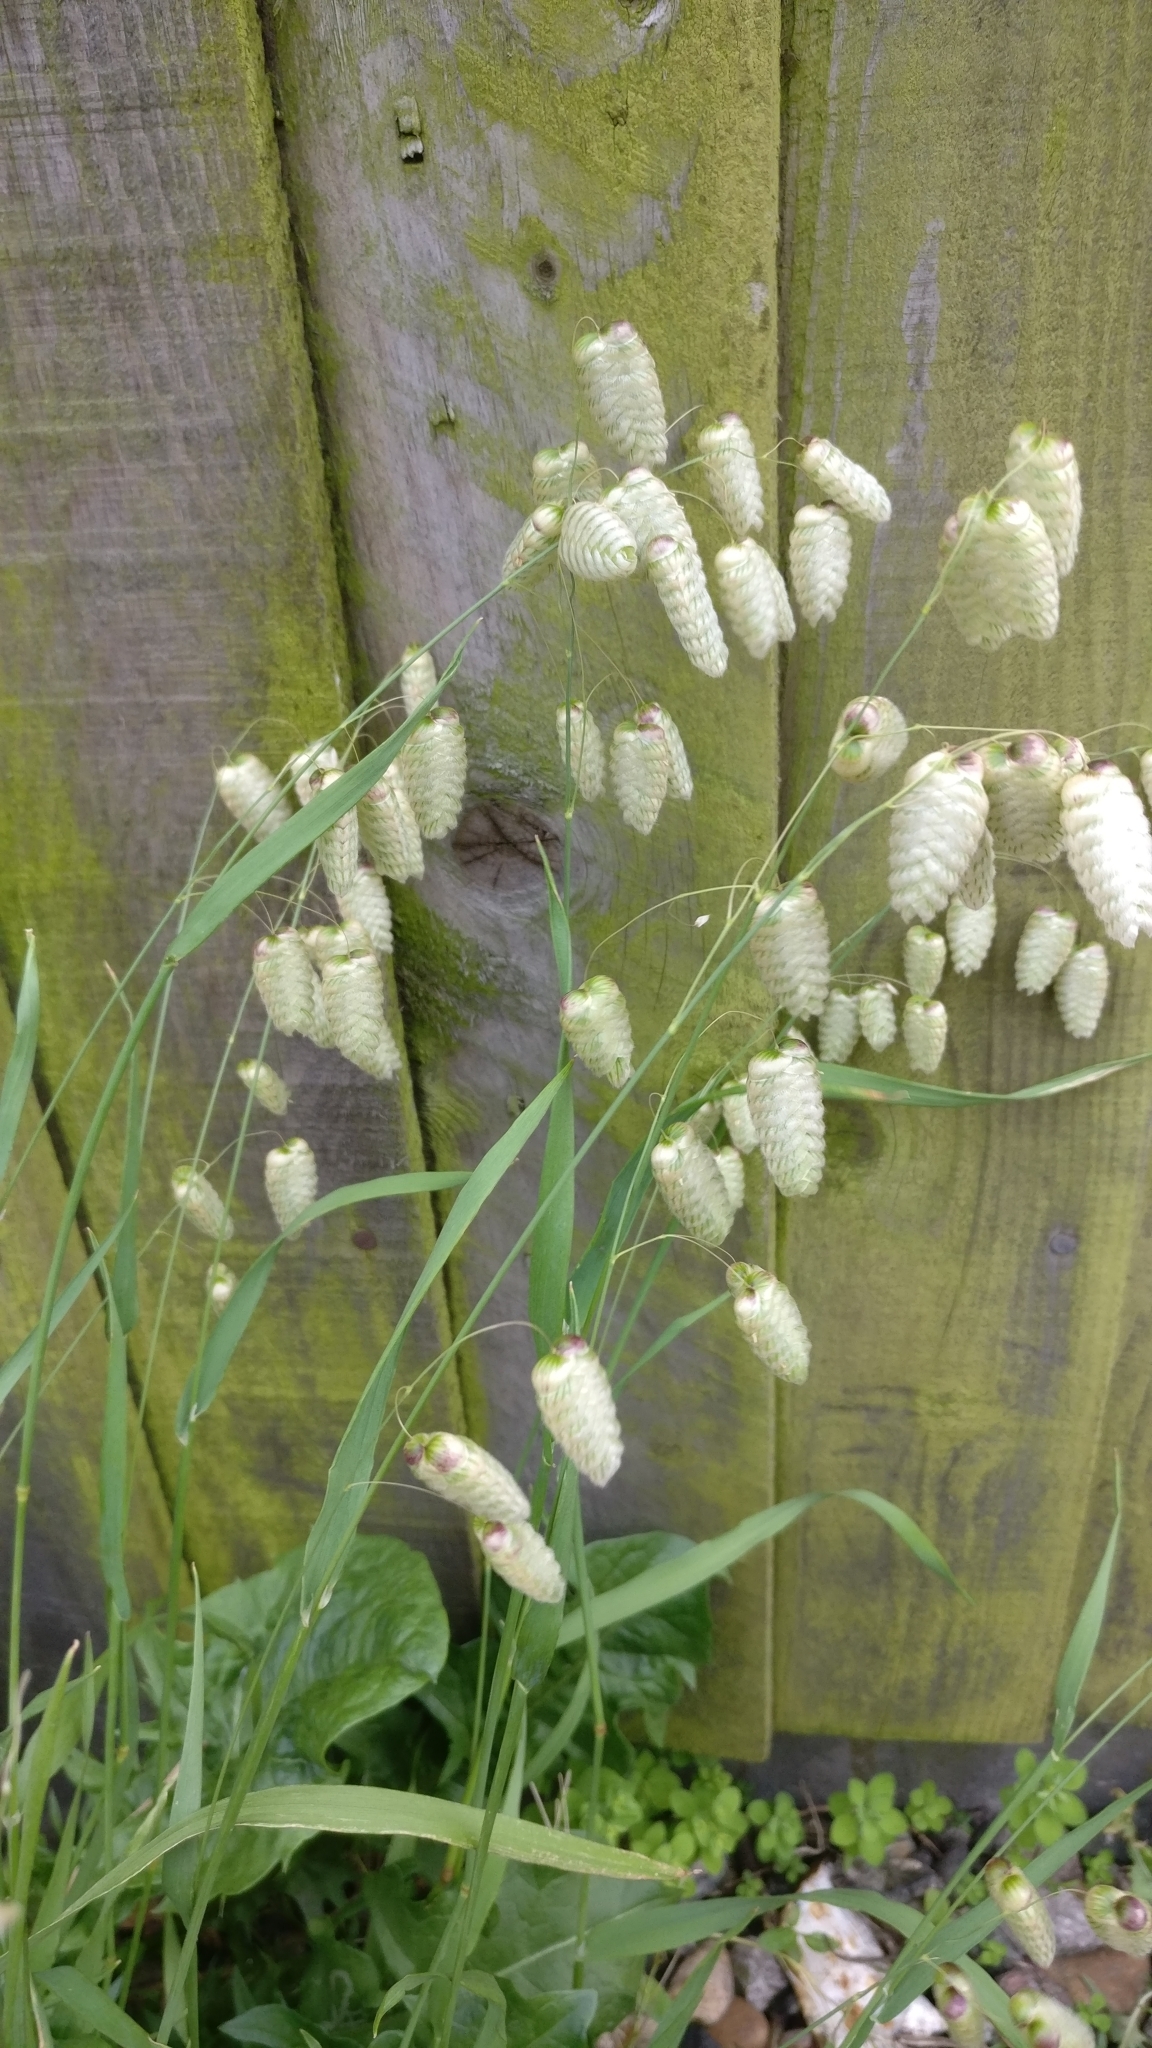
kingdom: Plantae
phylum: Tracheophyta
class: Liliopsida
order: Poales
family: Poaceae
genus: Briza
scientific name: Briza maxima
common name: Big quakinggrass
